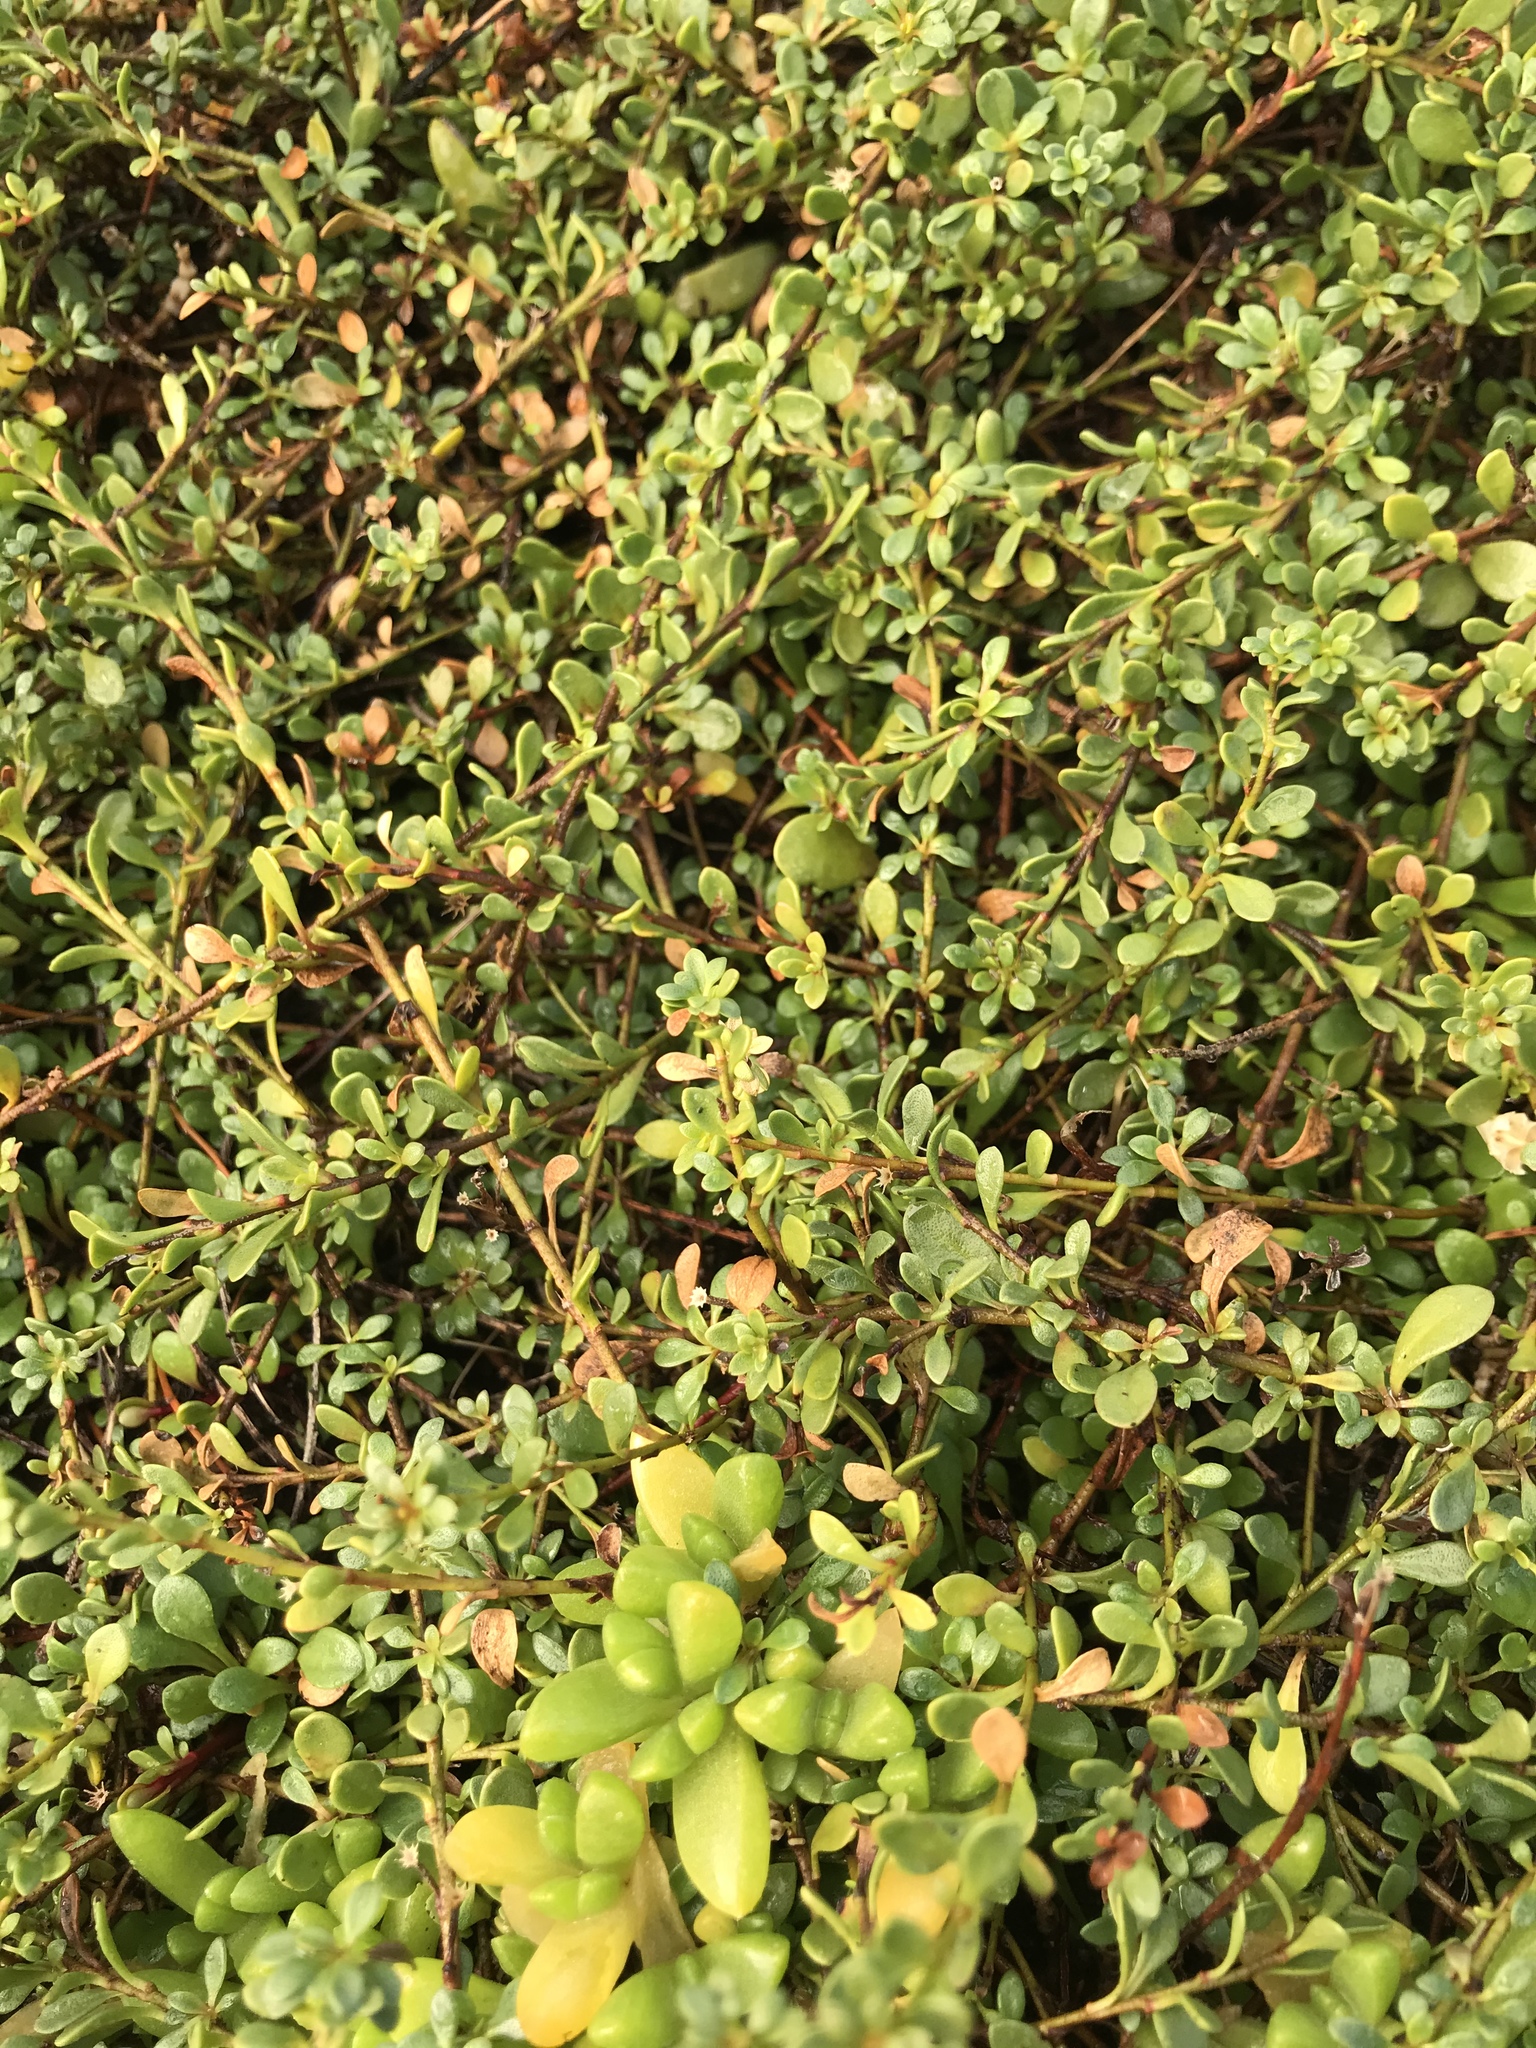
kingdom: Plantae
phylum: Tracheophyta
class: Magnoliopsida
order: Ericales
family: Primulaceae
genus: Samolus
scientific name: Samolus repens
